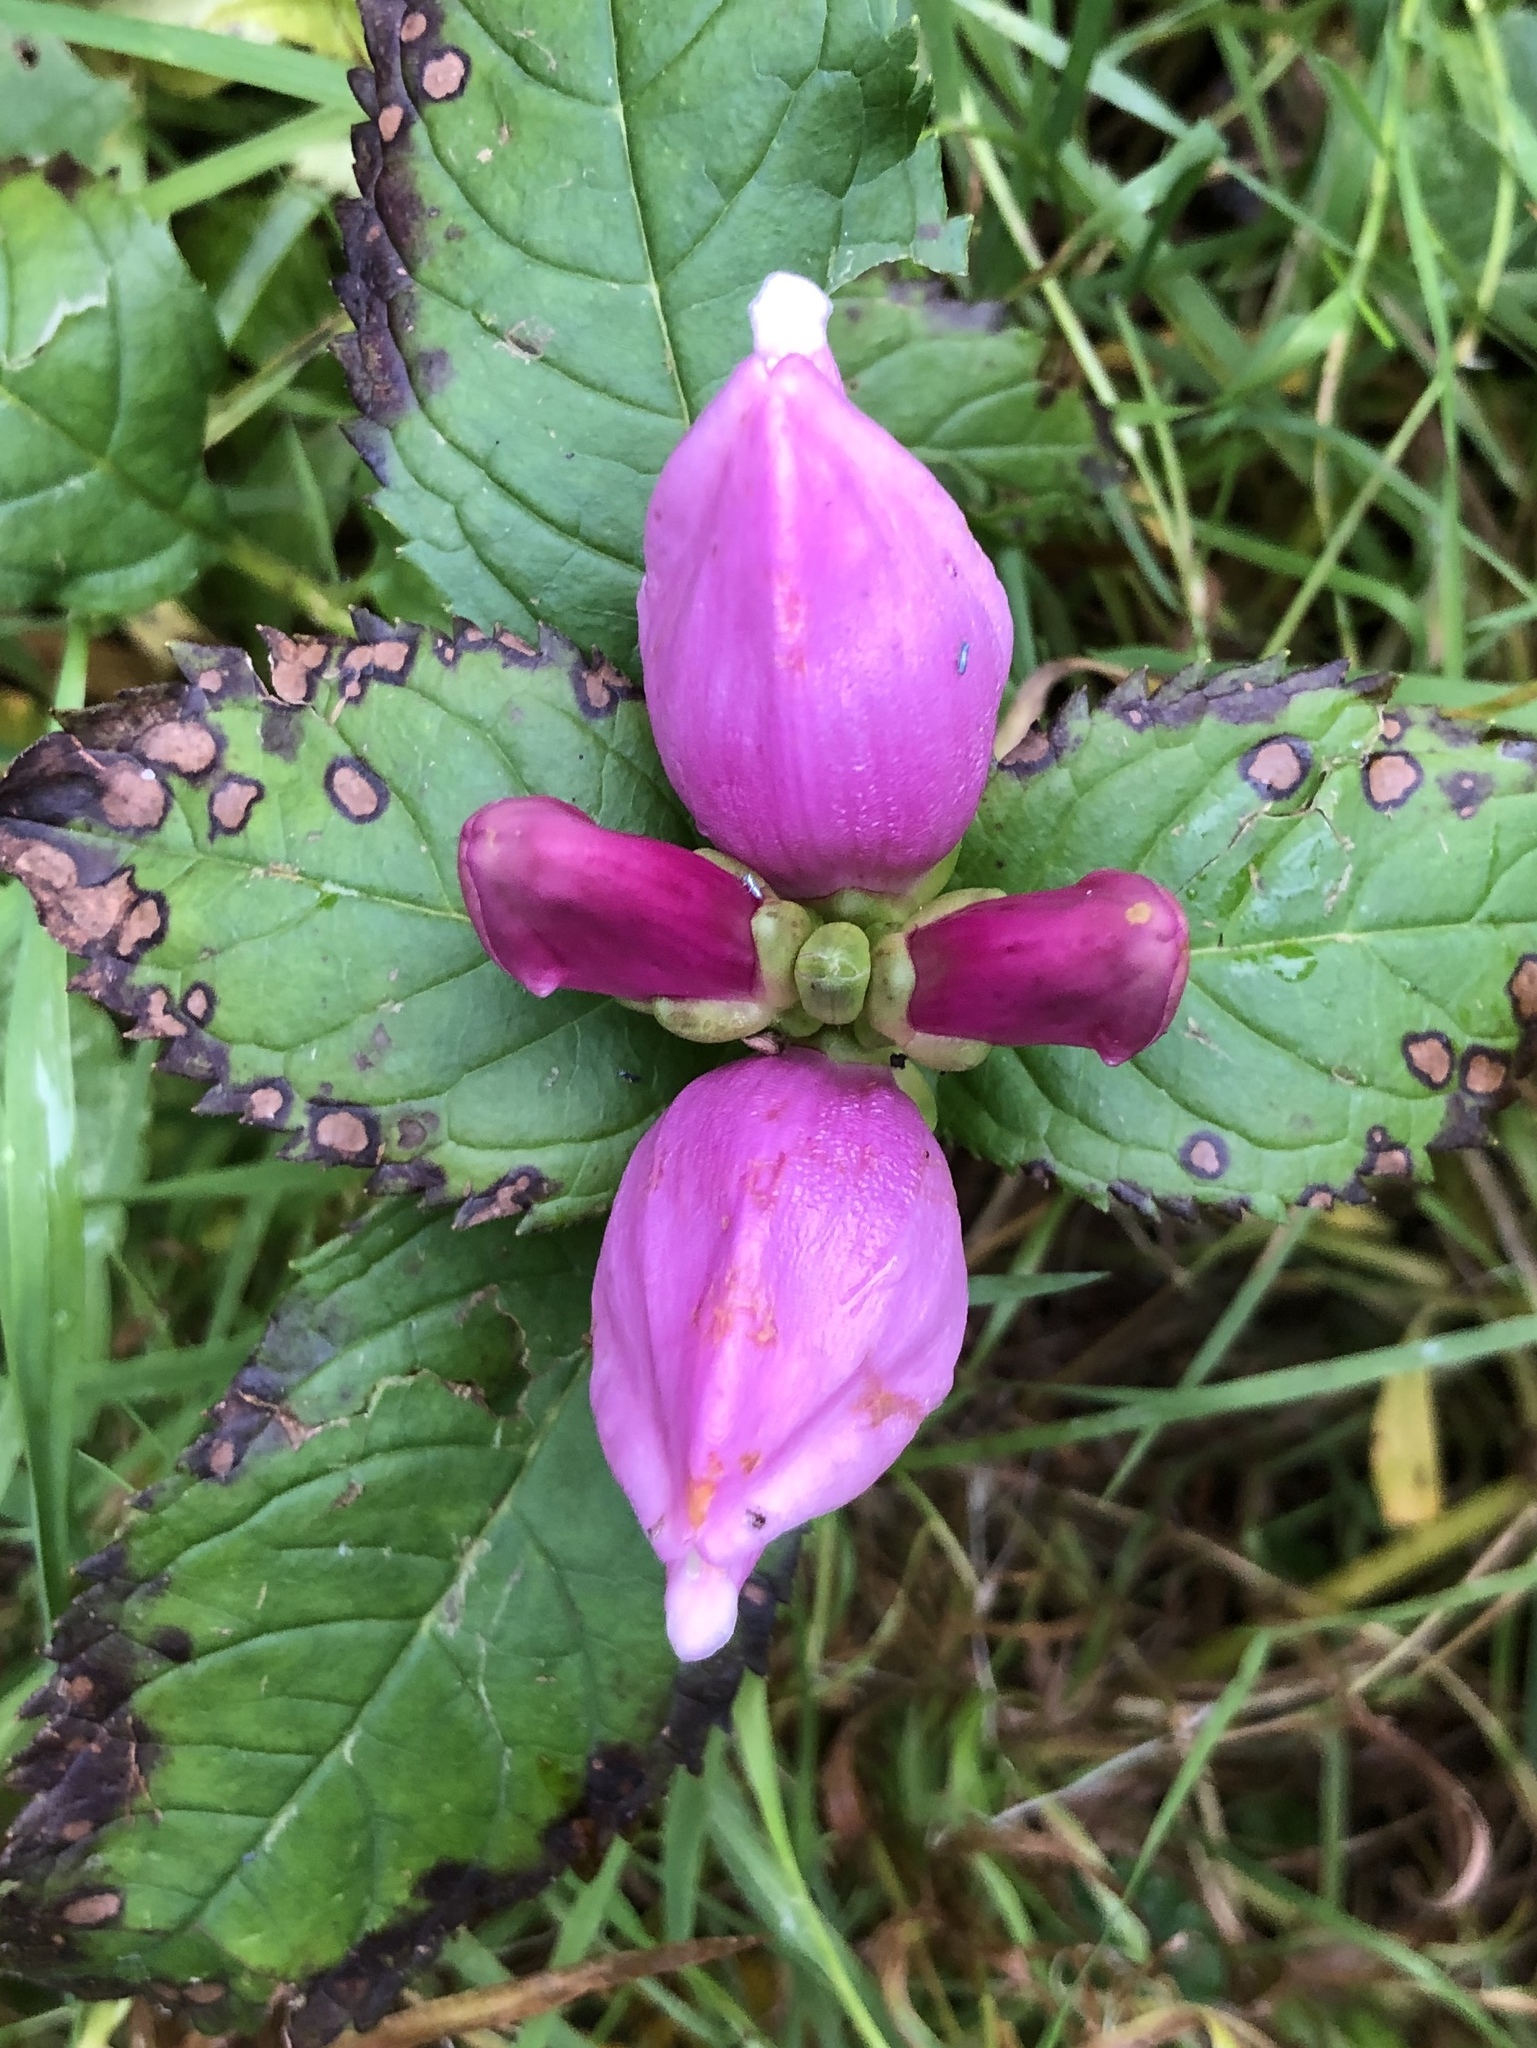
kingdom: Plantae
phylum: Tracheophyta
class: Magnoliopsida
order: Lamiales
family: Plantaginaceae
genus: Chelone
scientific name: Chelone lyonii
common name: Pink turtlehead
